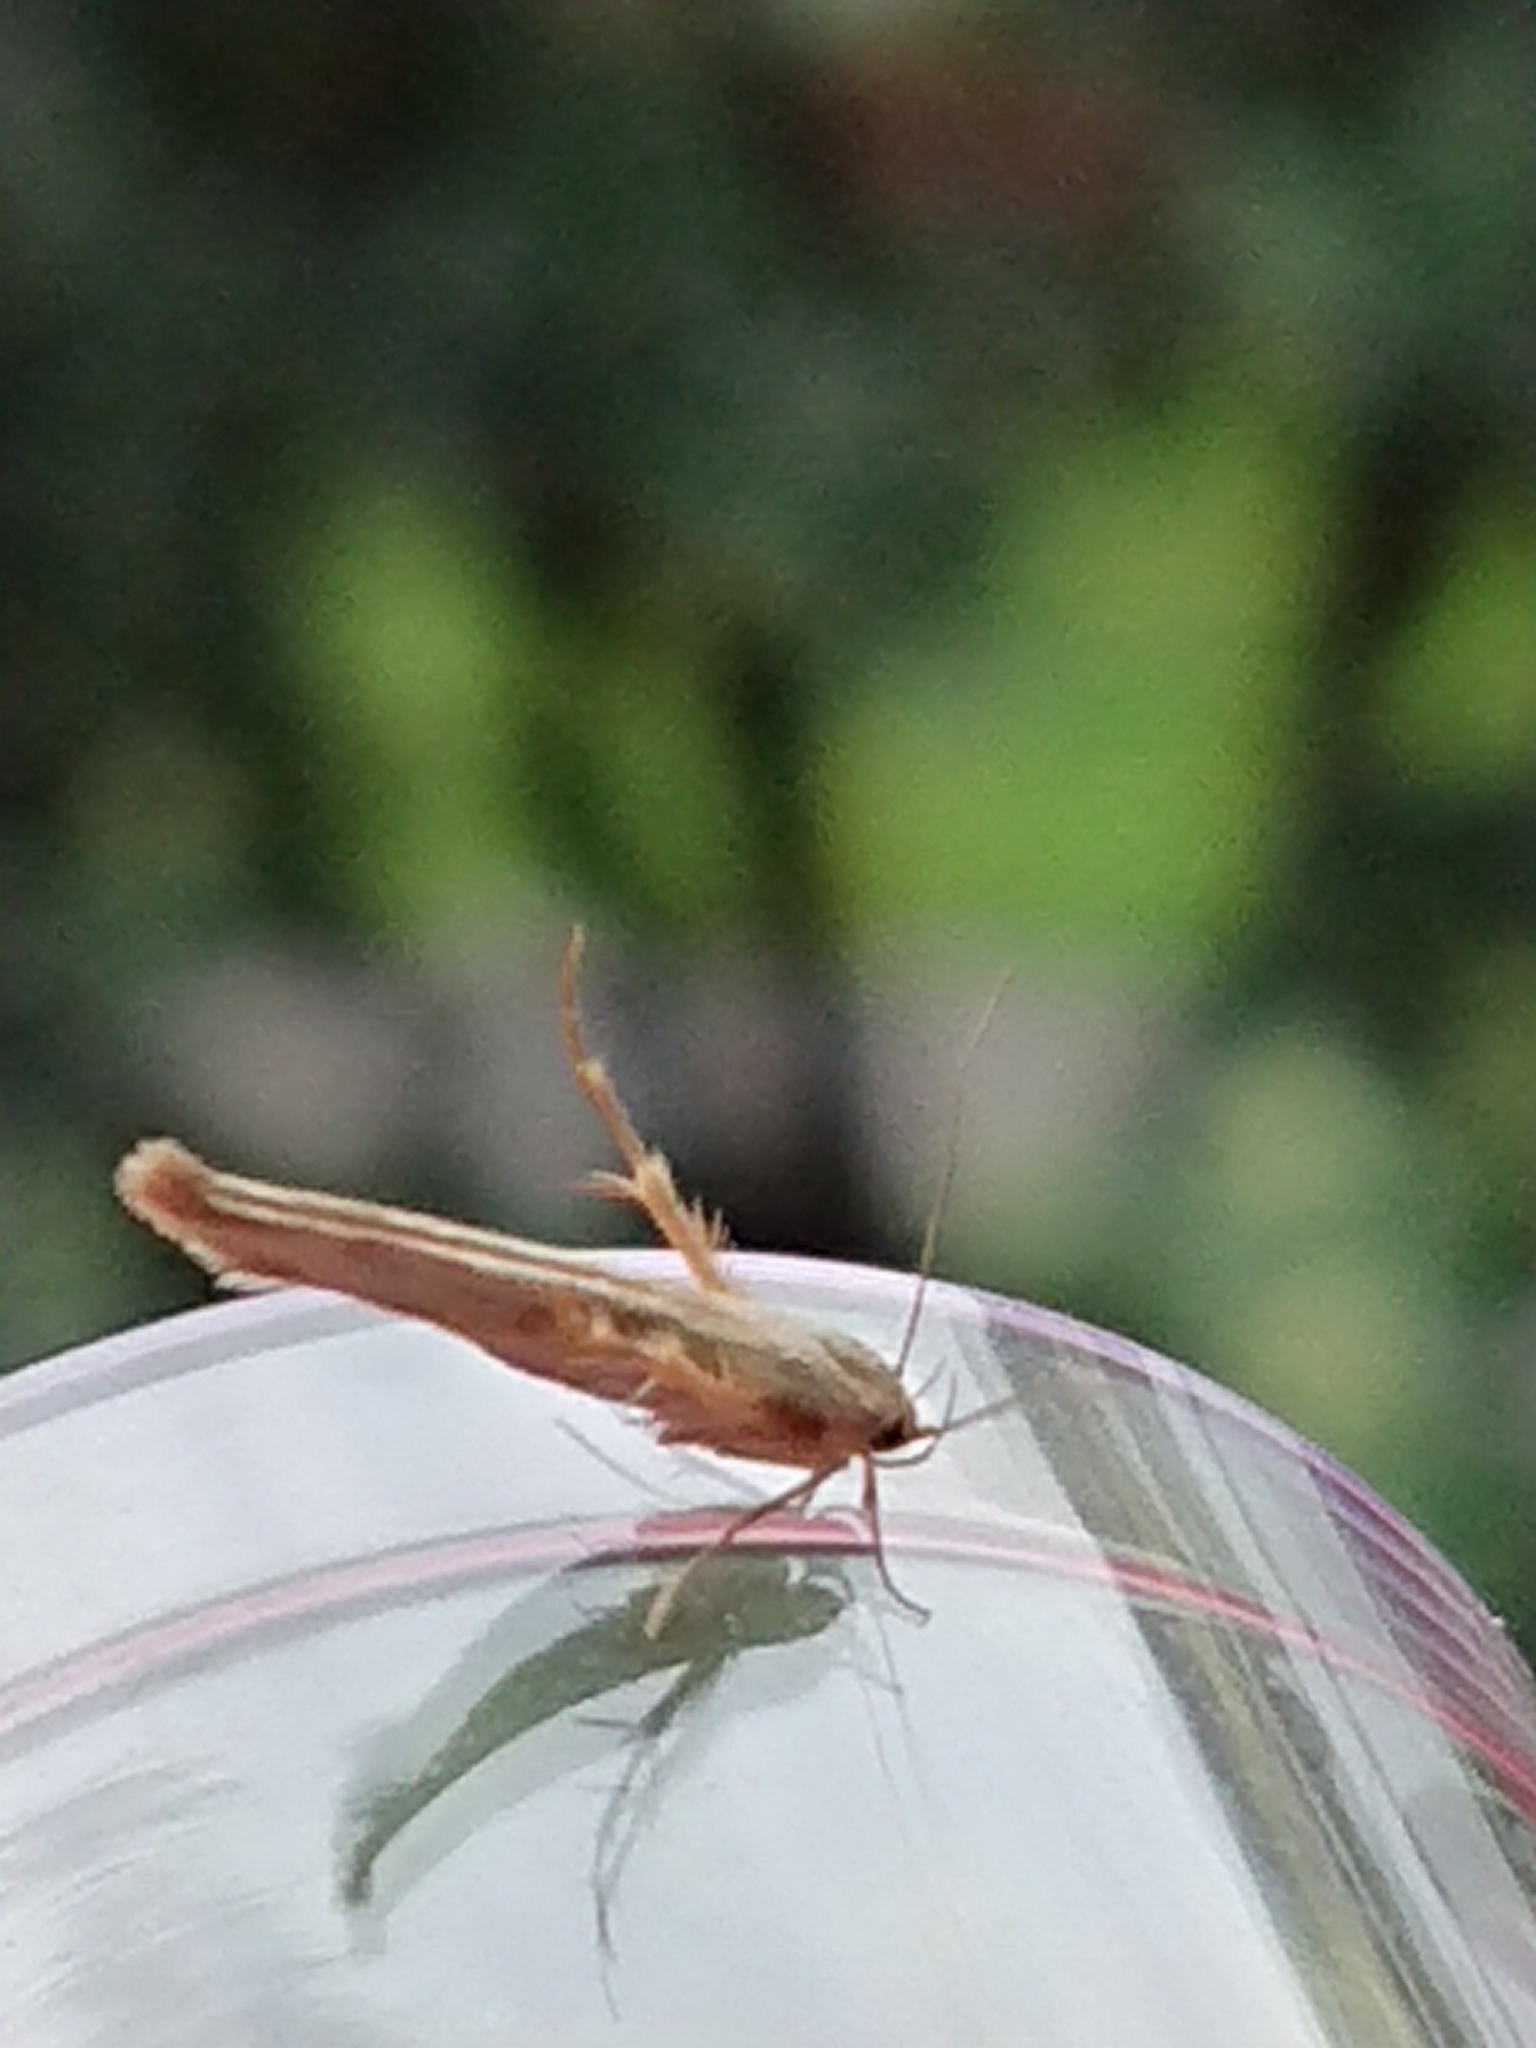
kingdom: Animalia
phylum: Arthropoda
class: Insecta
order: Lepidoptera
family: Stathmopodidae
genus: Stathmopoda
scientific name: Stathmopoda aposema
